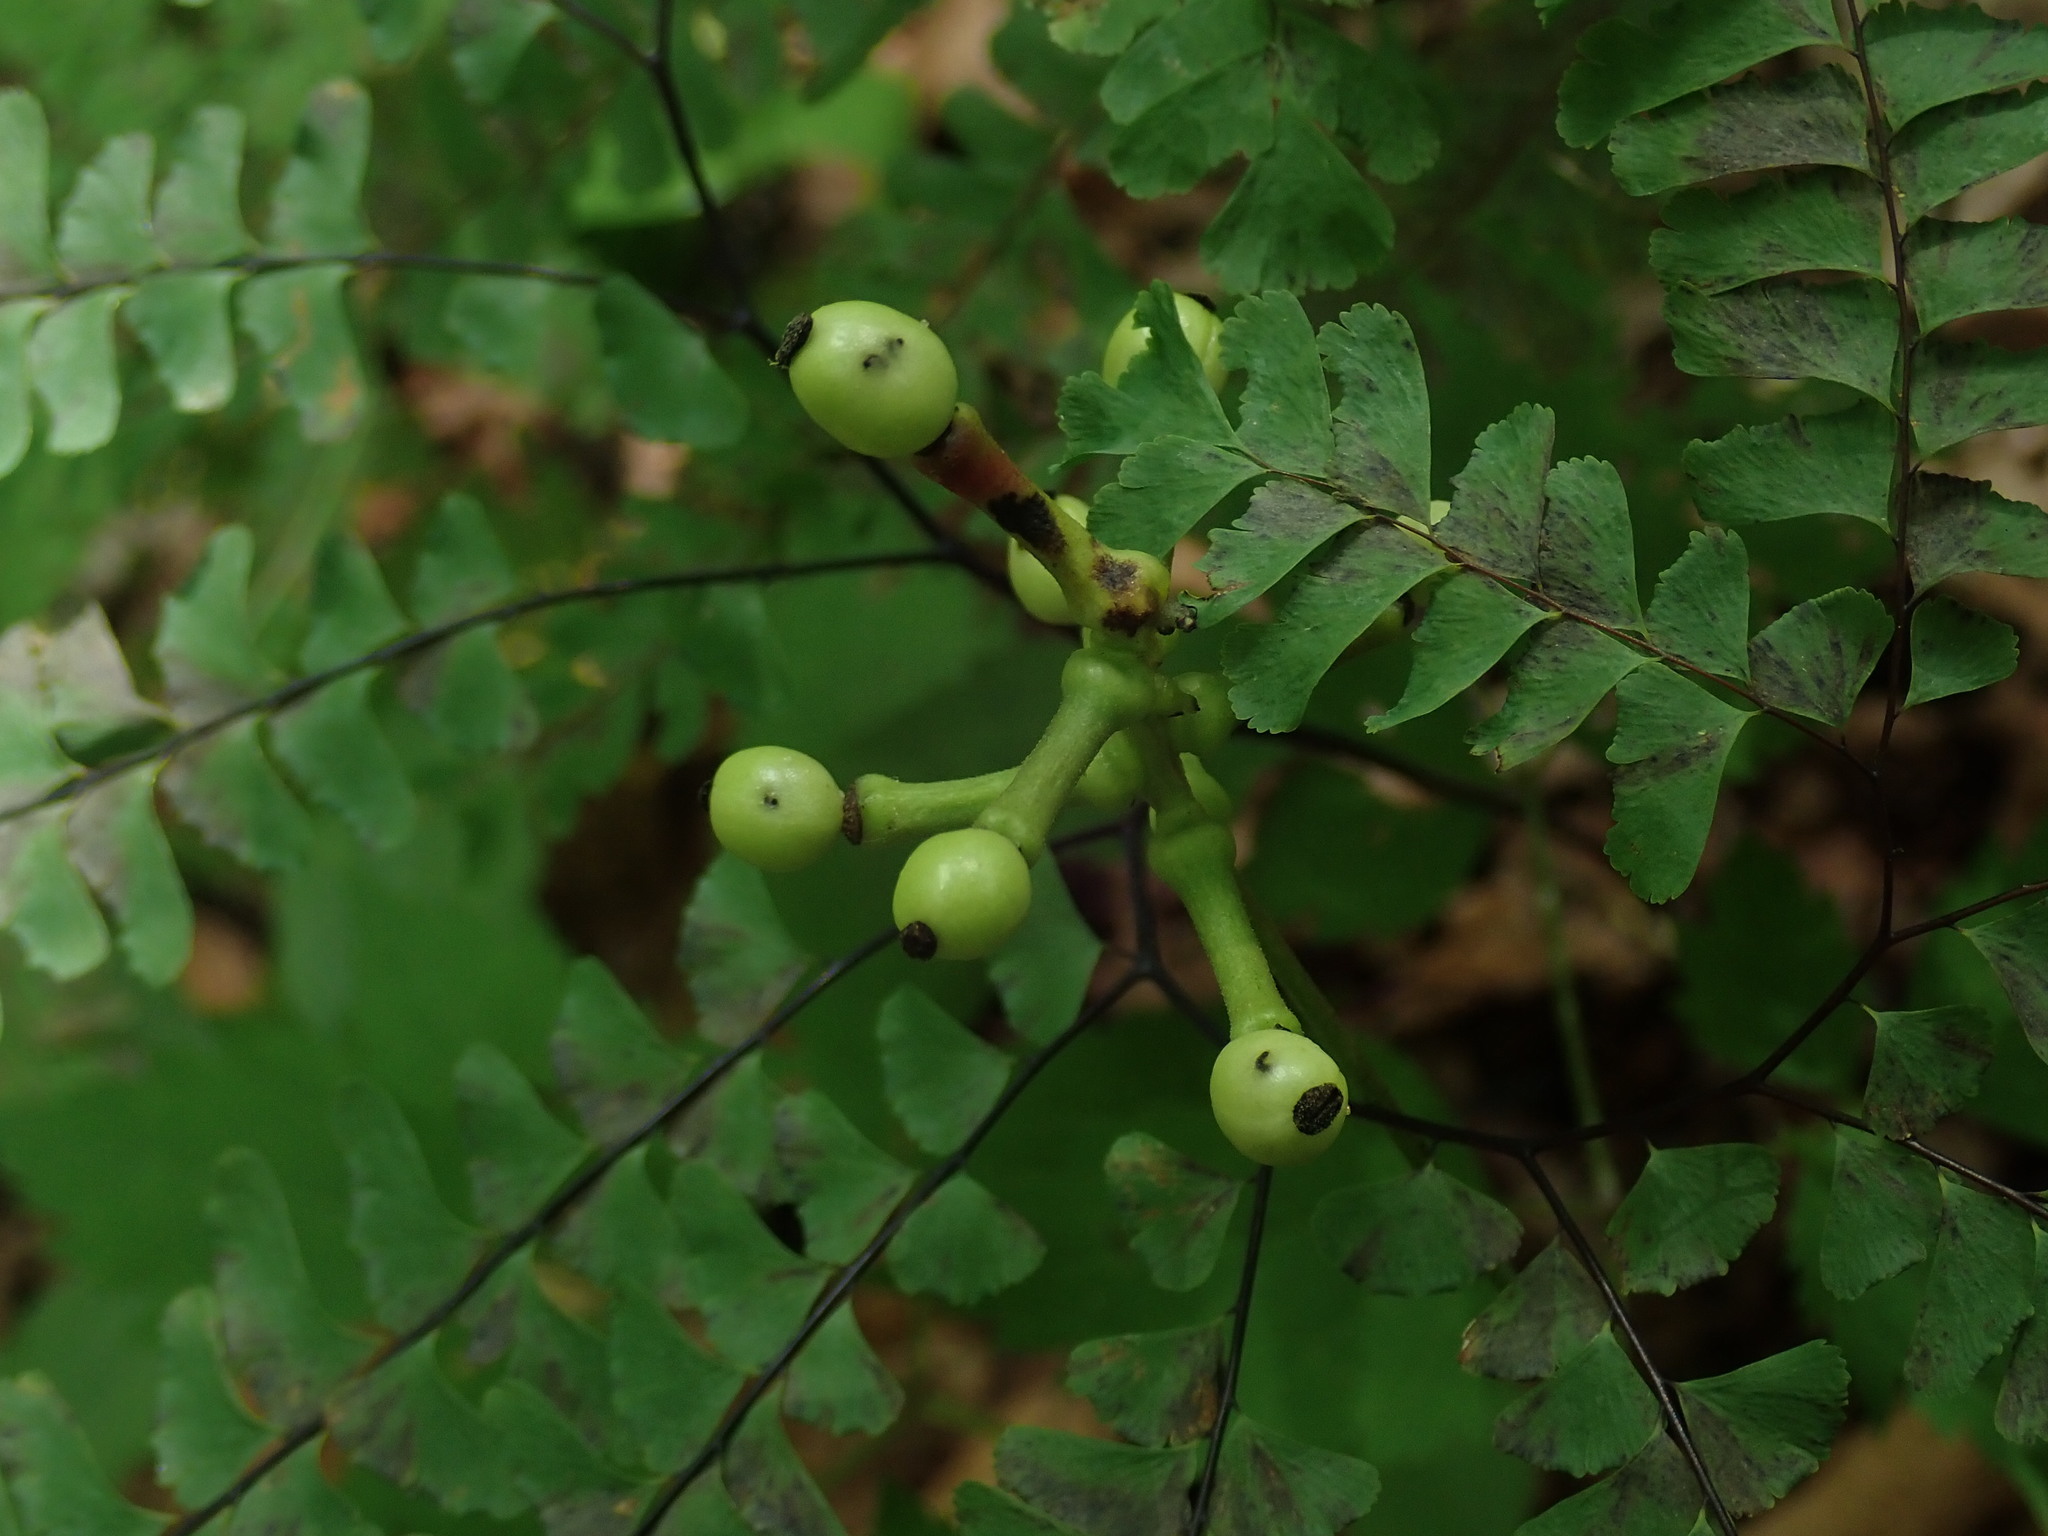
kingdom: Plantae
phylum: Tracheophyta
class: Magnoliopsida
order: Ranunculales
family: Ranunculaceae
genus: Actaea
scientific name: Actaea pachypoda
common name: Doll's-eyes
